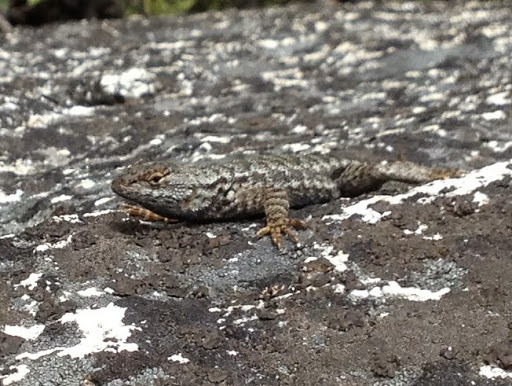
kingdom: Animalia
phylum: Chordata
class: Squamata
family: Phrynosomatidae
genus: Sceloporus
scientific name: Sceloporus occidentalis
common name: Western fence lizard
